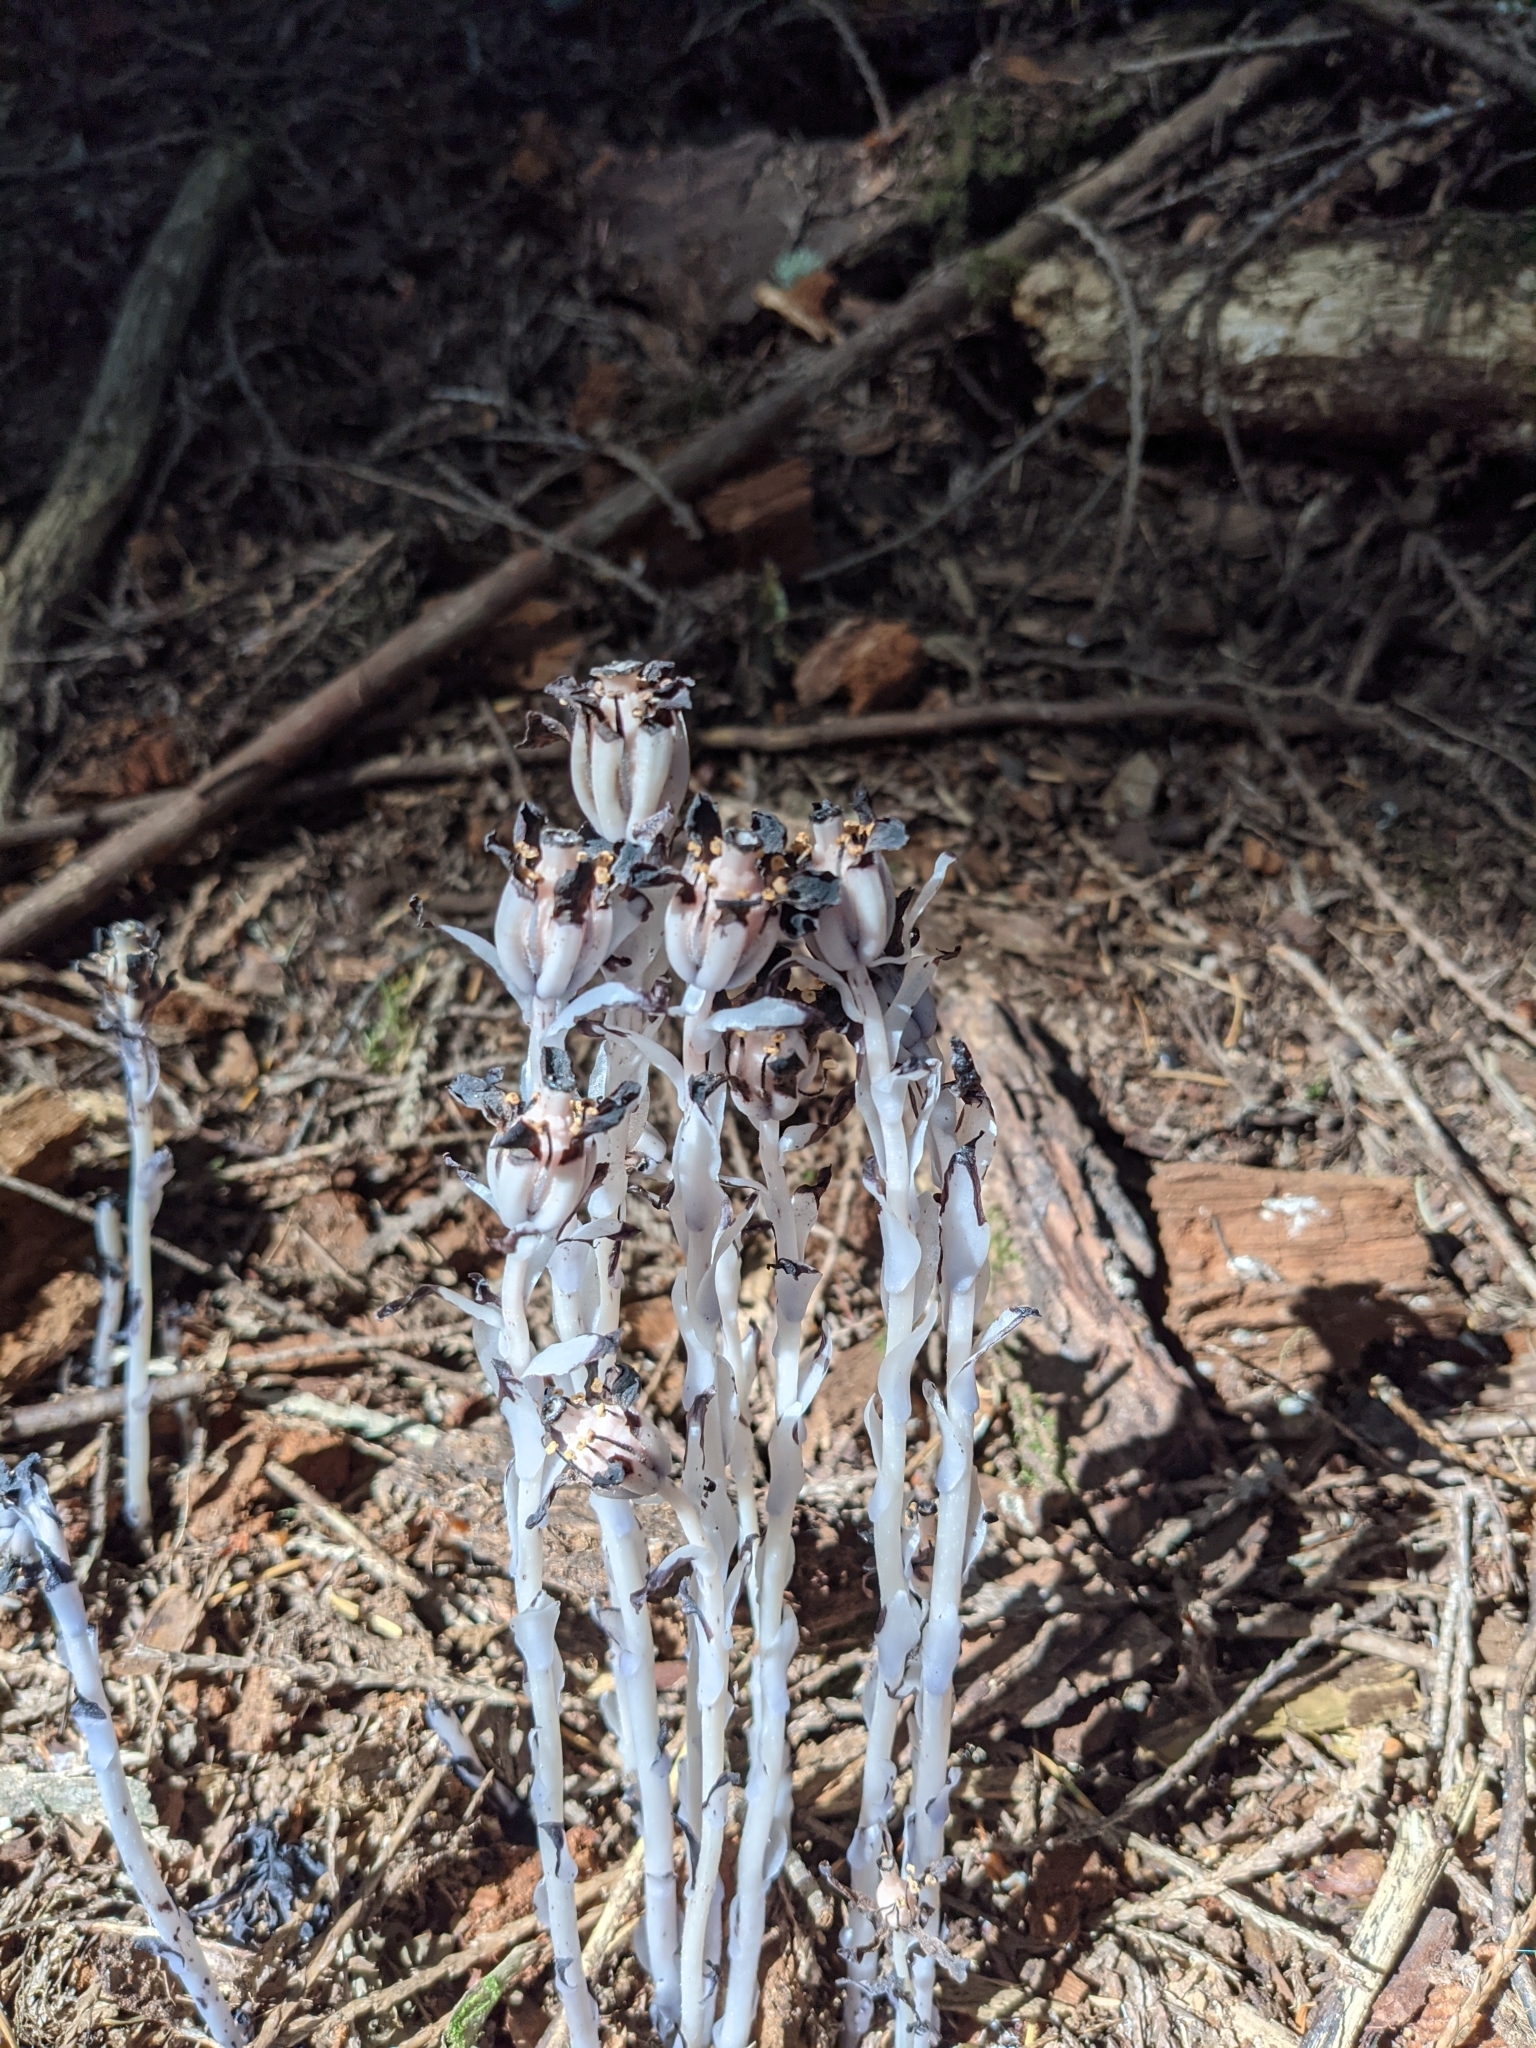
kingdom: Plantae
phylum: Tracheophyta
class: Magnoliopsida
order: Ericales
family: Ericaceae
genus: Monotropa
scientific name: Monotropa uniflora
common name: Convulsion root
